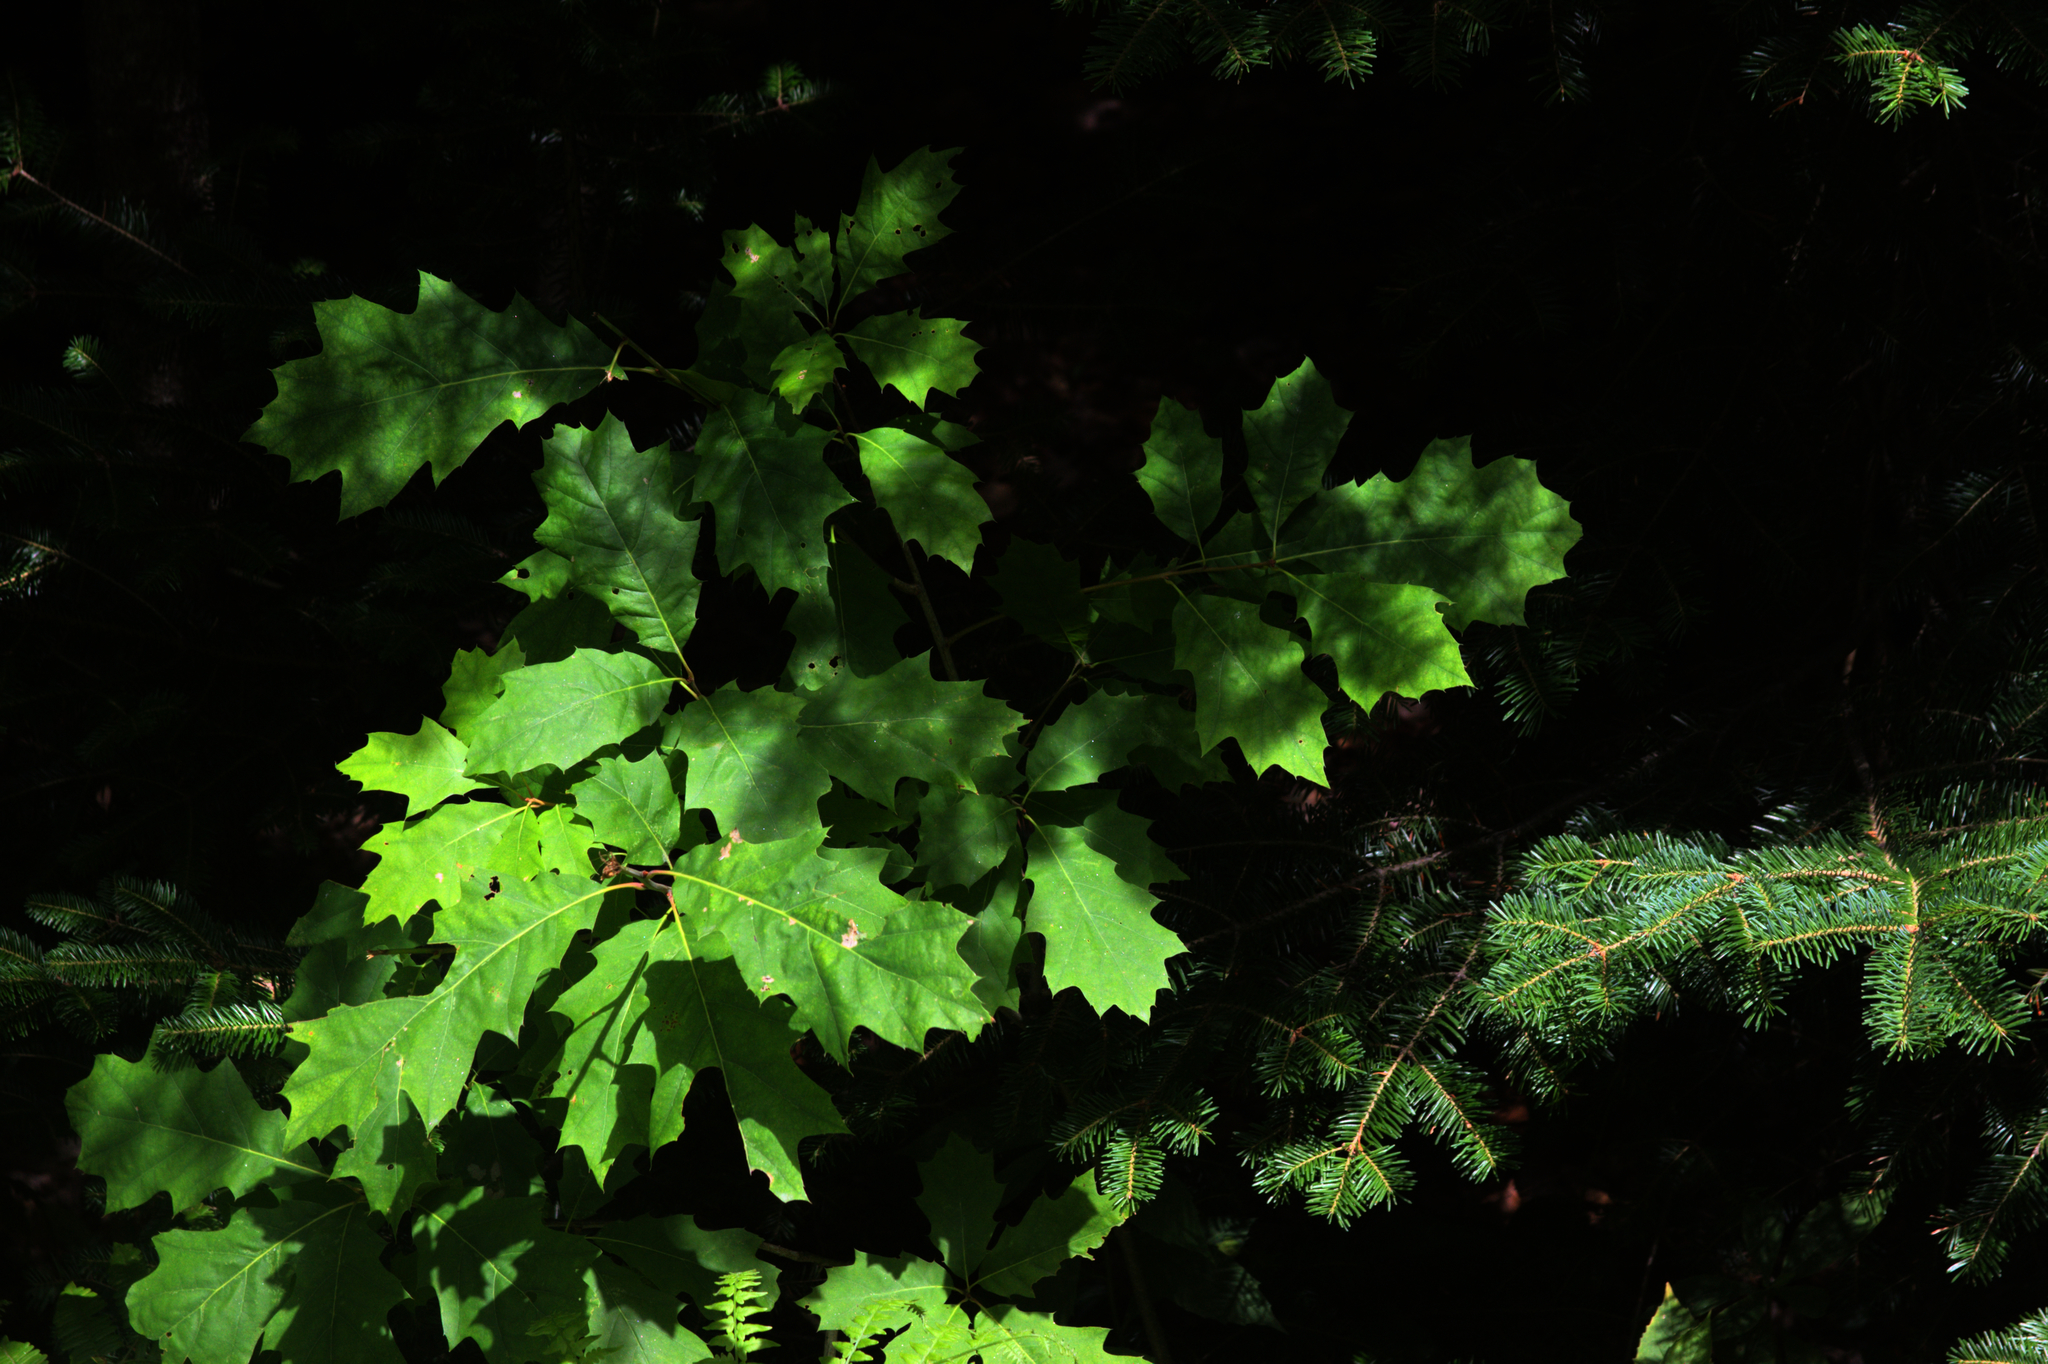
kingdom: Plantae
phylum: Tracheophyta
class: Magnoliopsida
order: Fagales
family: Fagaceae
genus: Quercus
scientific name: Quercus rubra
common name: Red oak
